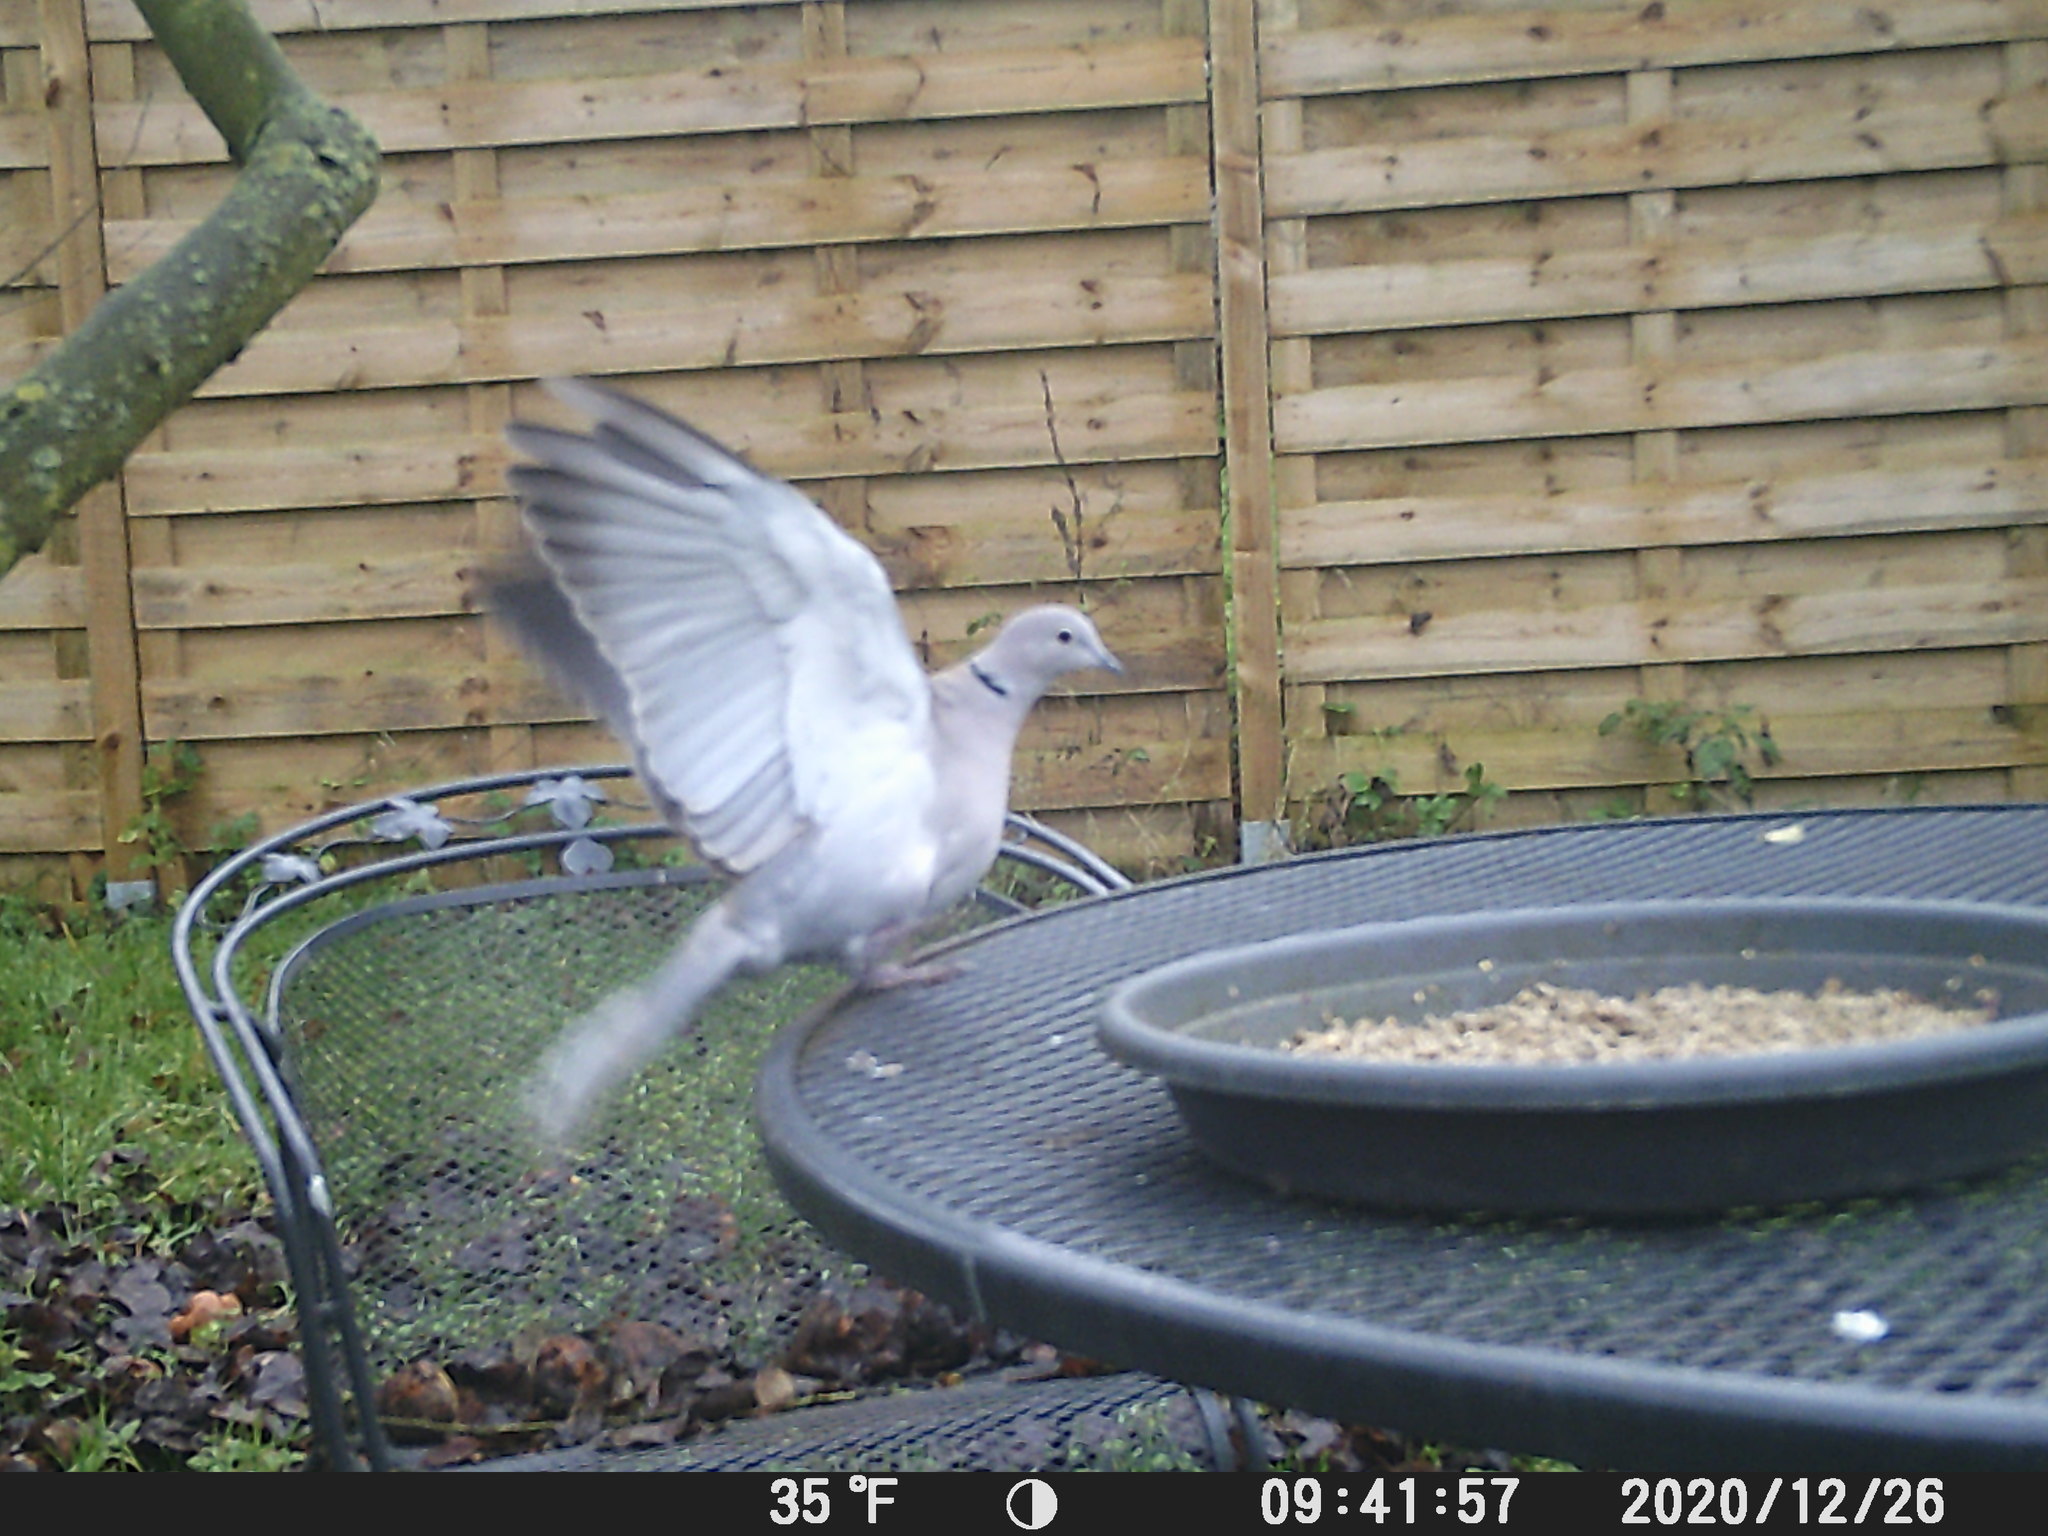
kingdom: Animalia
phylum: Chordata
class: Aves
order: Columbiformes
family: Columbidae
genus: Streptopelia
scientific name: Streptopelia decaocto
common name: Eurasian collared dove
